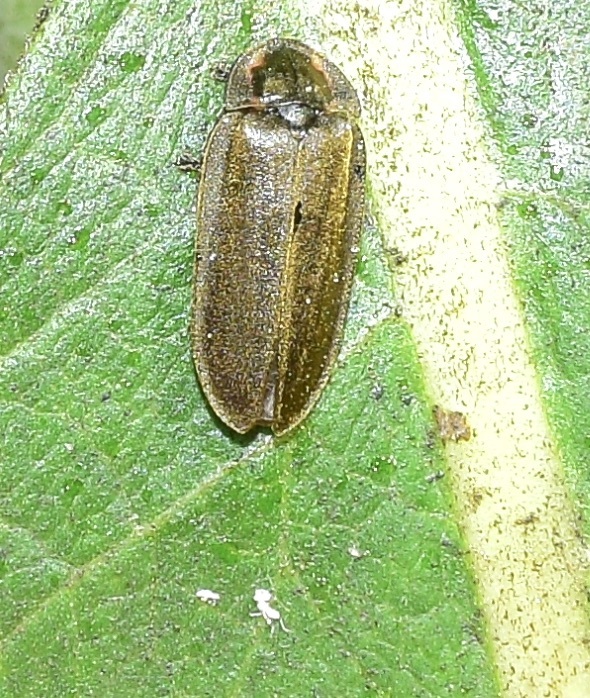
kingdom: Animalia
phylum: Arthropoda
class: Insecta
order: Coleoptera
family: Lampyridae
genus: Photinus
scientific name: Photinus corrusca
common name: Winter firefly
